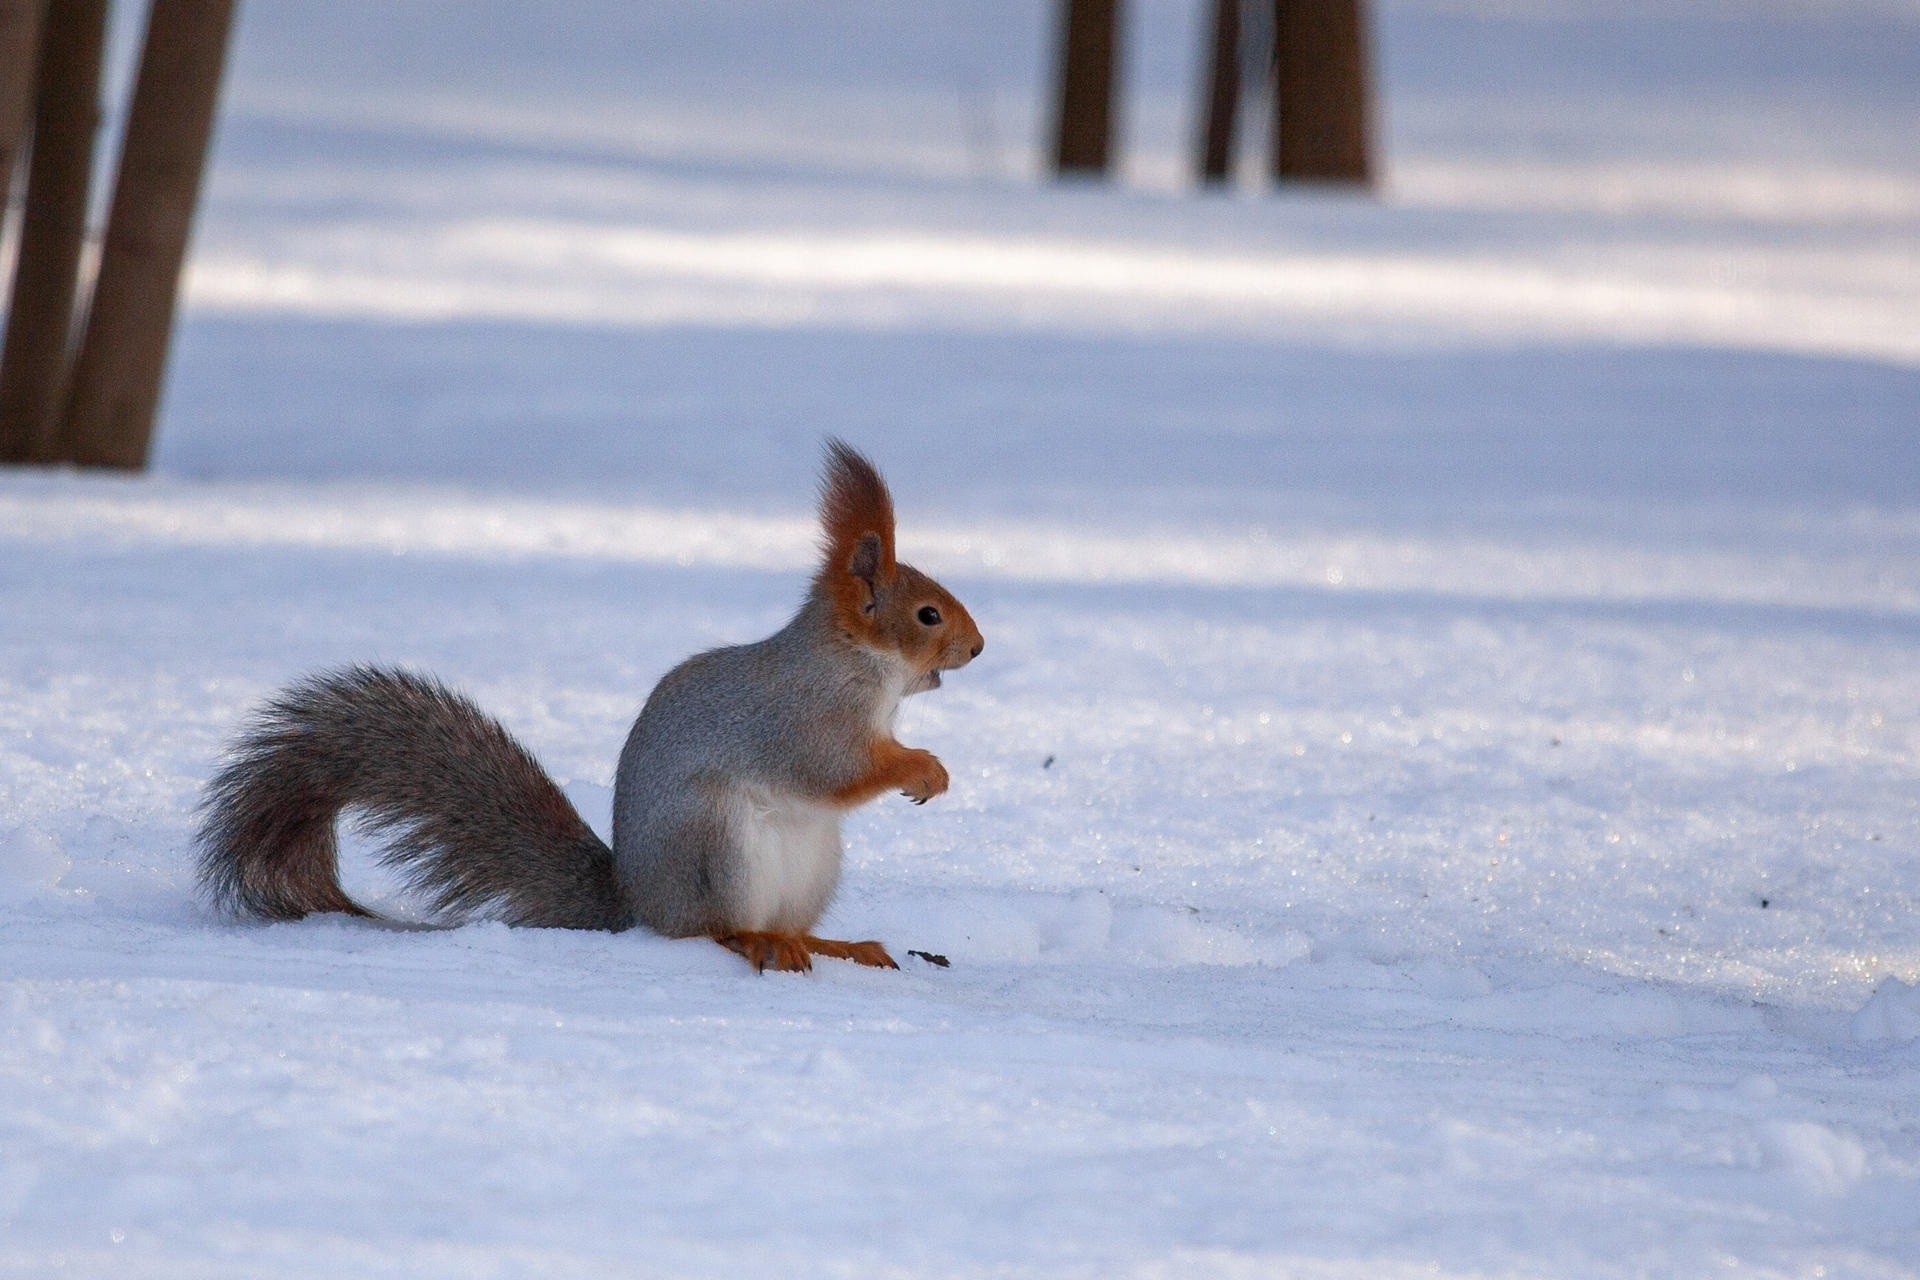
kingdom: Animalia
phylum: Chordata
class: Mammalia
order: Rodentia
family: Sciuridae
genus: Sciurus
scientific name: Sciurus vulgaris
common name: Eurasian red squirrel
